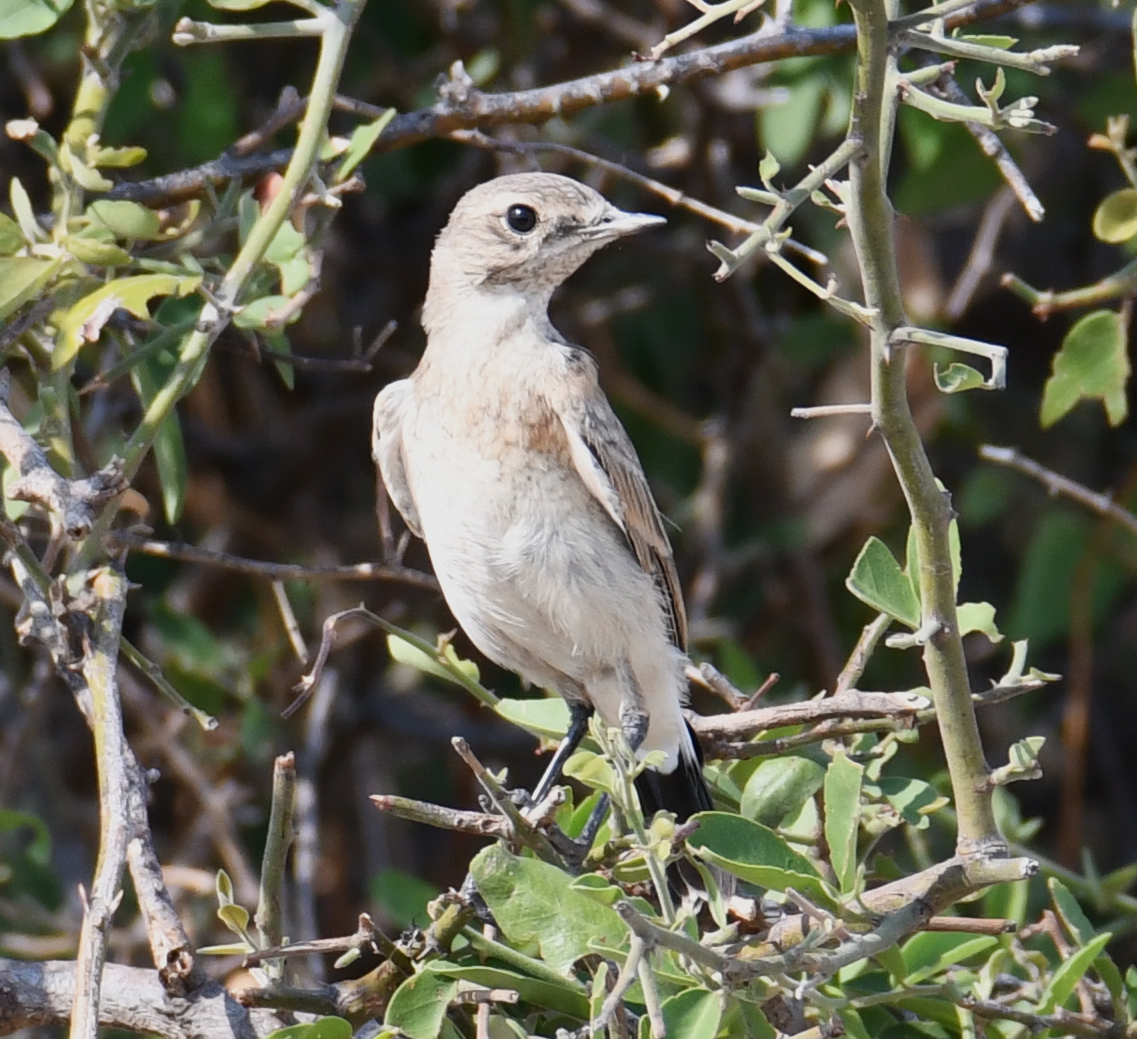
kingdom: Animalia
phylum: Chordata
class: Aves
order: Passeriformes
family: Muscicapidae
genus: Oenanthe
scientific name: Oenanthe pileata
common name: Capped wheatear
